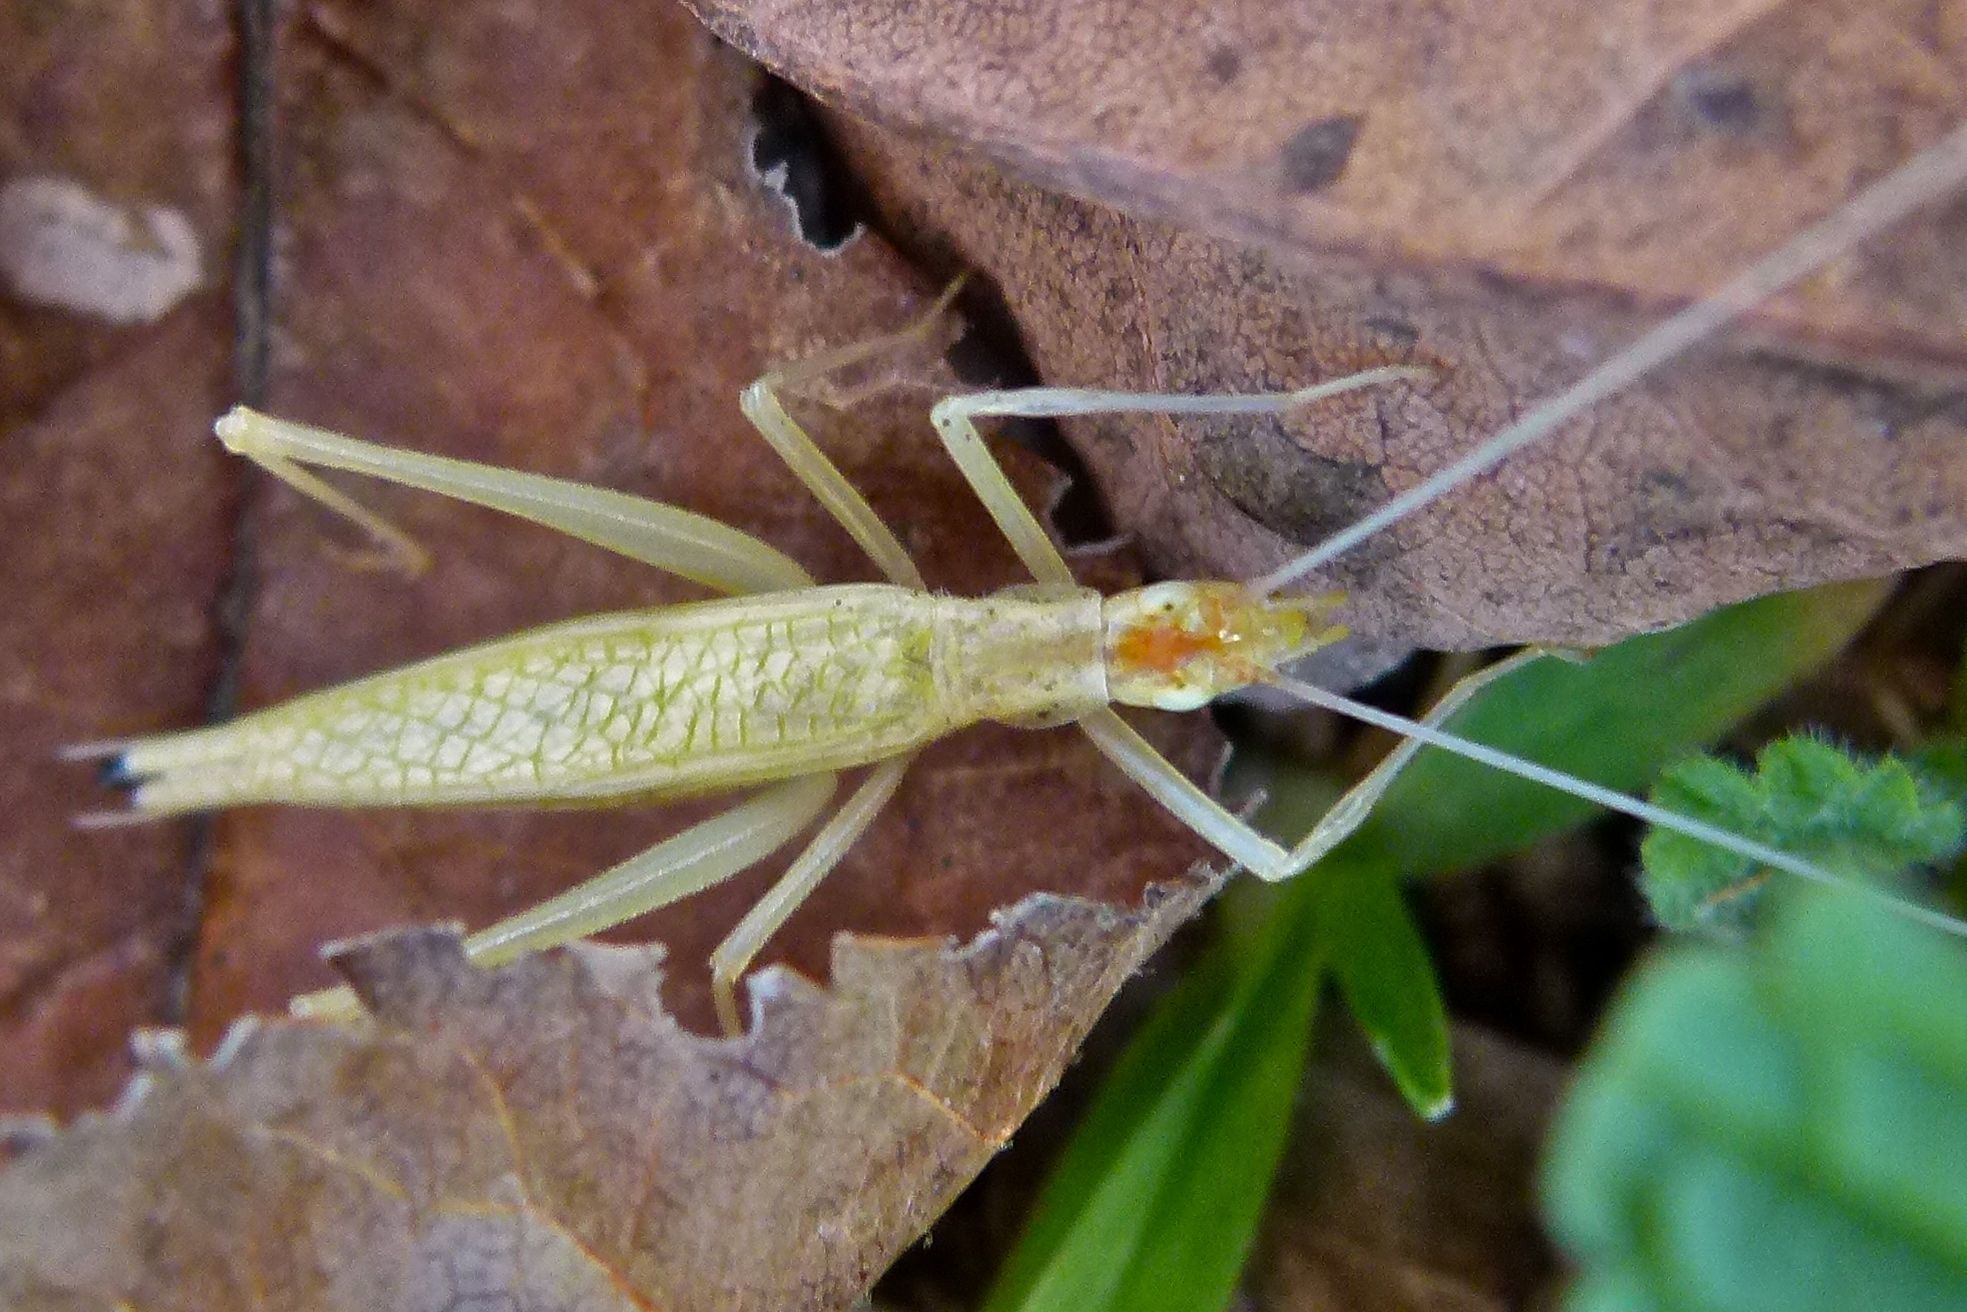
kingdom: Animalia
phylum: Arthropoda
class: Insecta
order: Orthoptera
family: Gryllidae
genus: Oecanthus
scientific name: Oecanthus niveus
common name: Narrow-winged tree cricket
